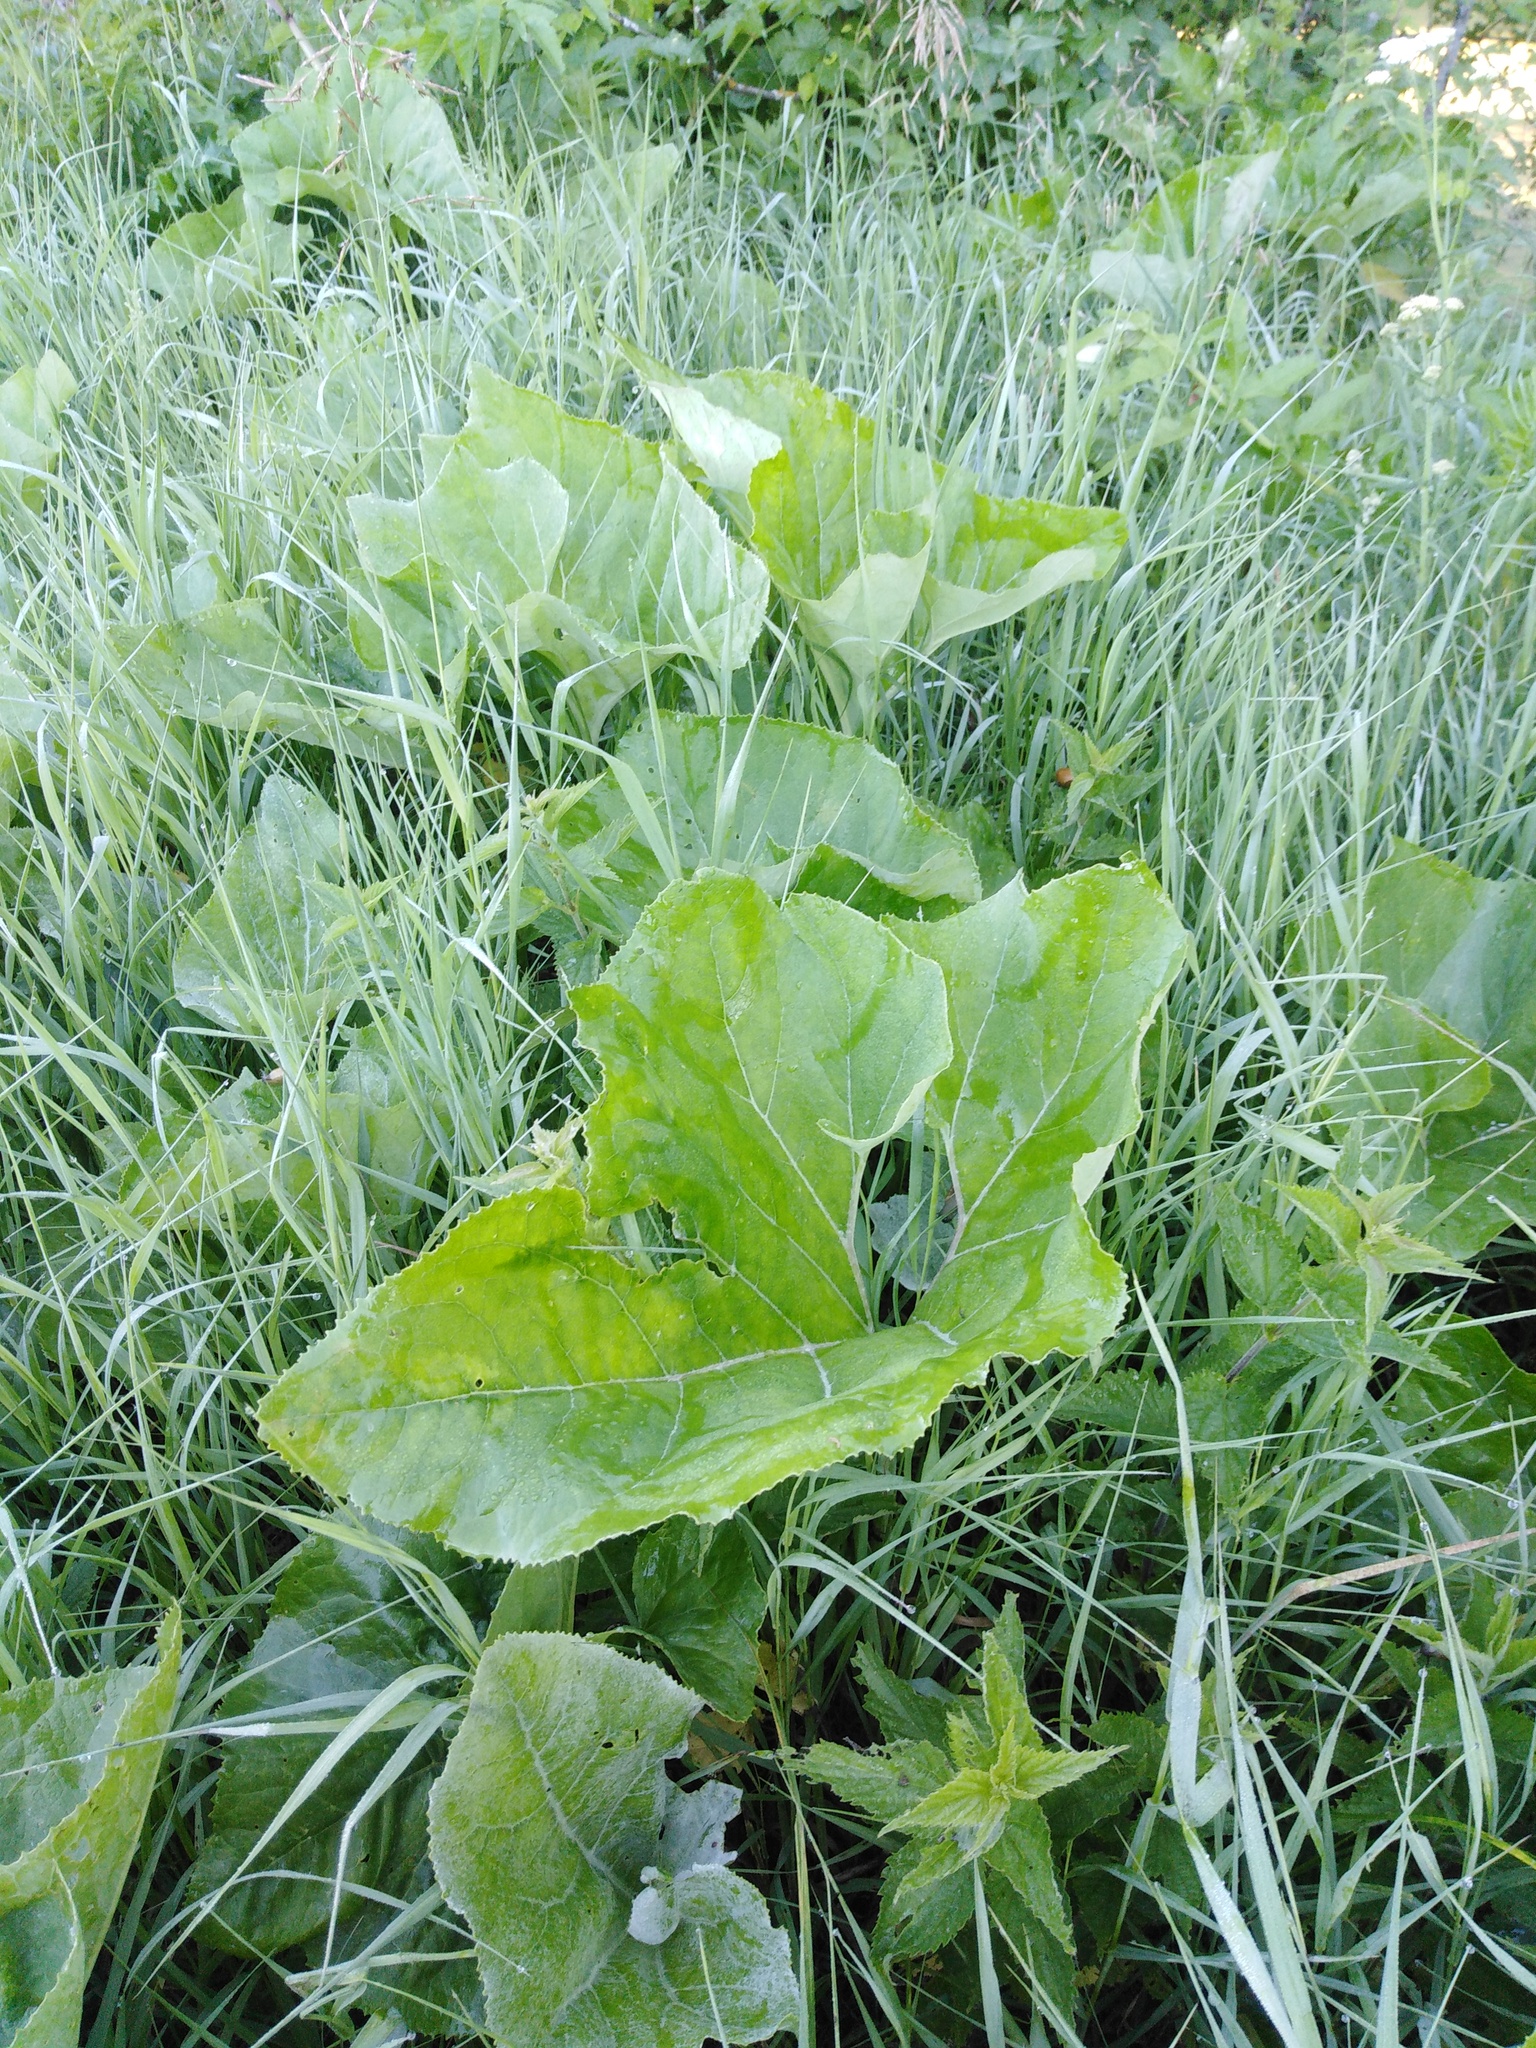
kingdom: Plantae
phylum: Tracheophyta
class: Magnoliopsida
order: Asterales
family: Asteraceae
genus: Petasites
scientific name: Petasites spurius
